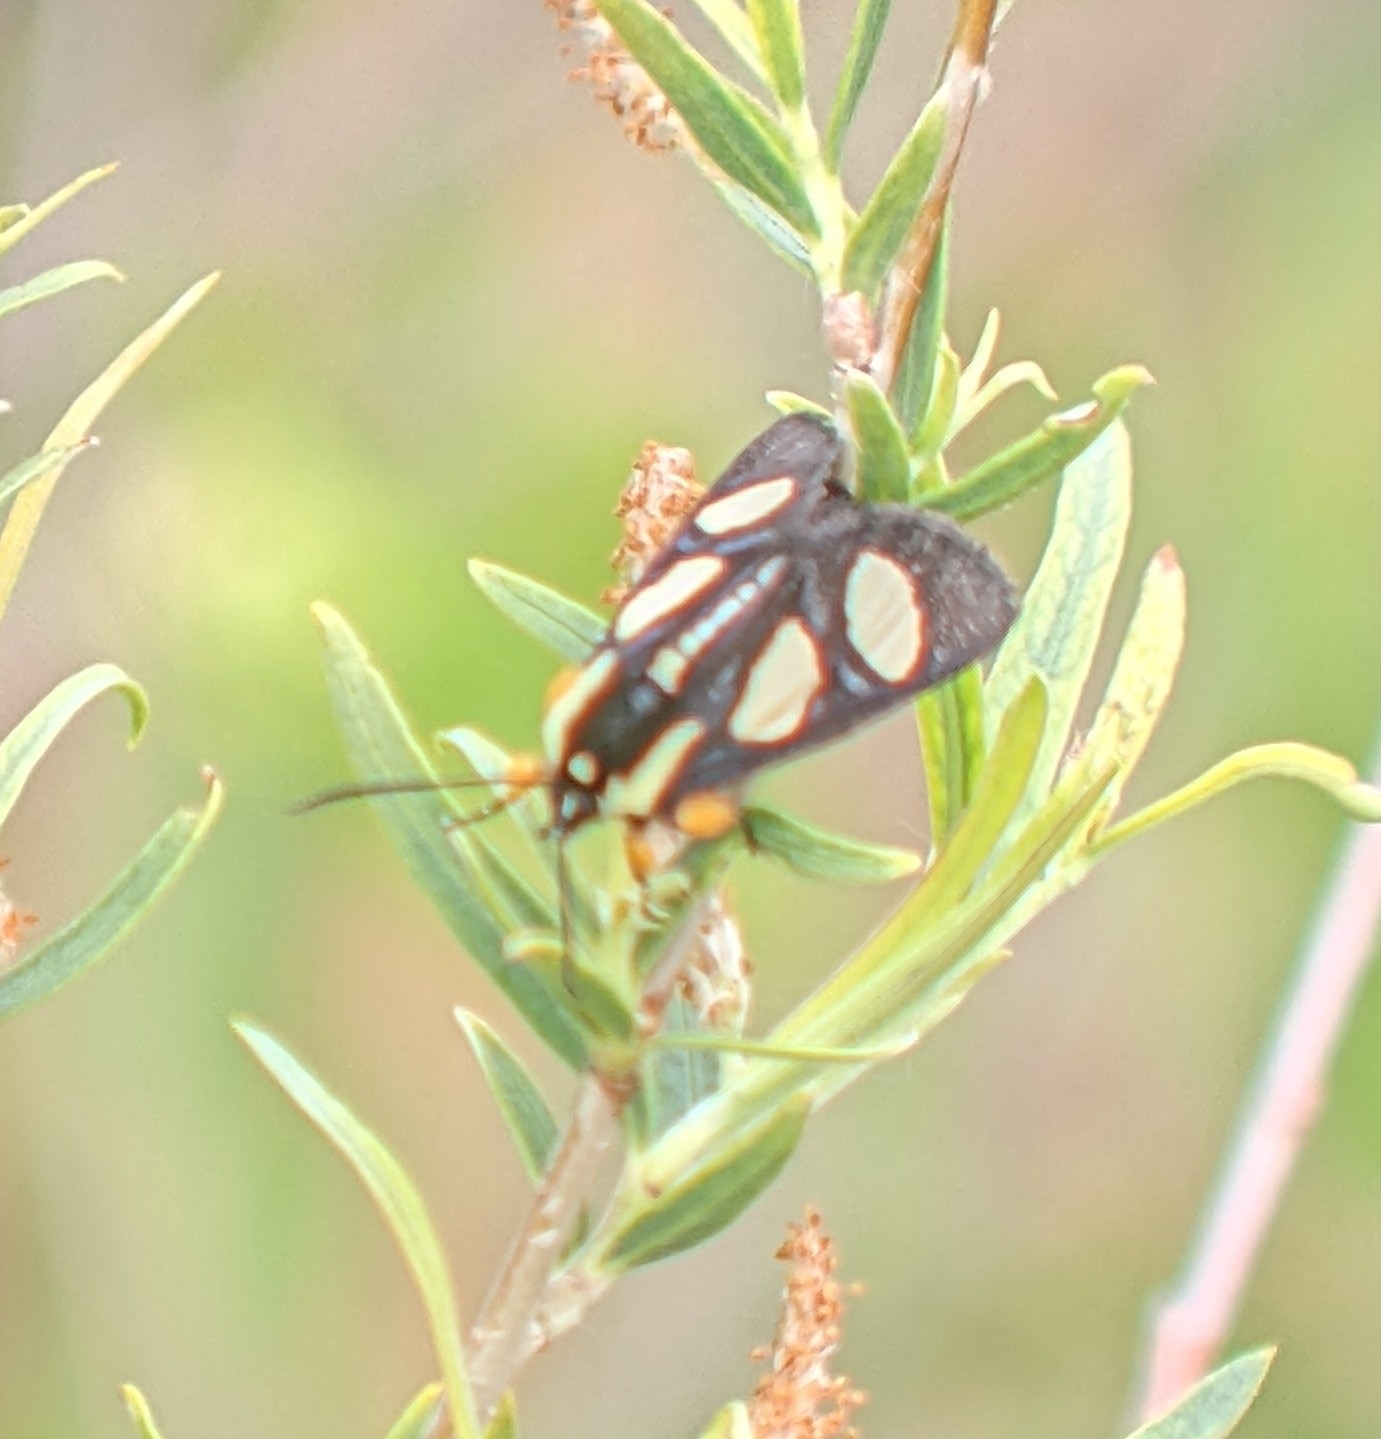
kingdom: Animalia
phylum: Arthropoda
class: Insecta
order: Lepidoptera
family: Noctuidae
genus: Alypia
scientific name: Alypia octomaculata
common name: Eight-spotted forester
